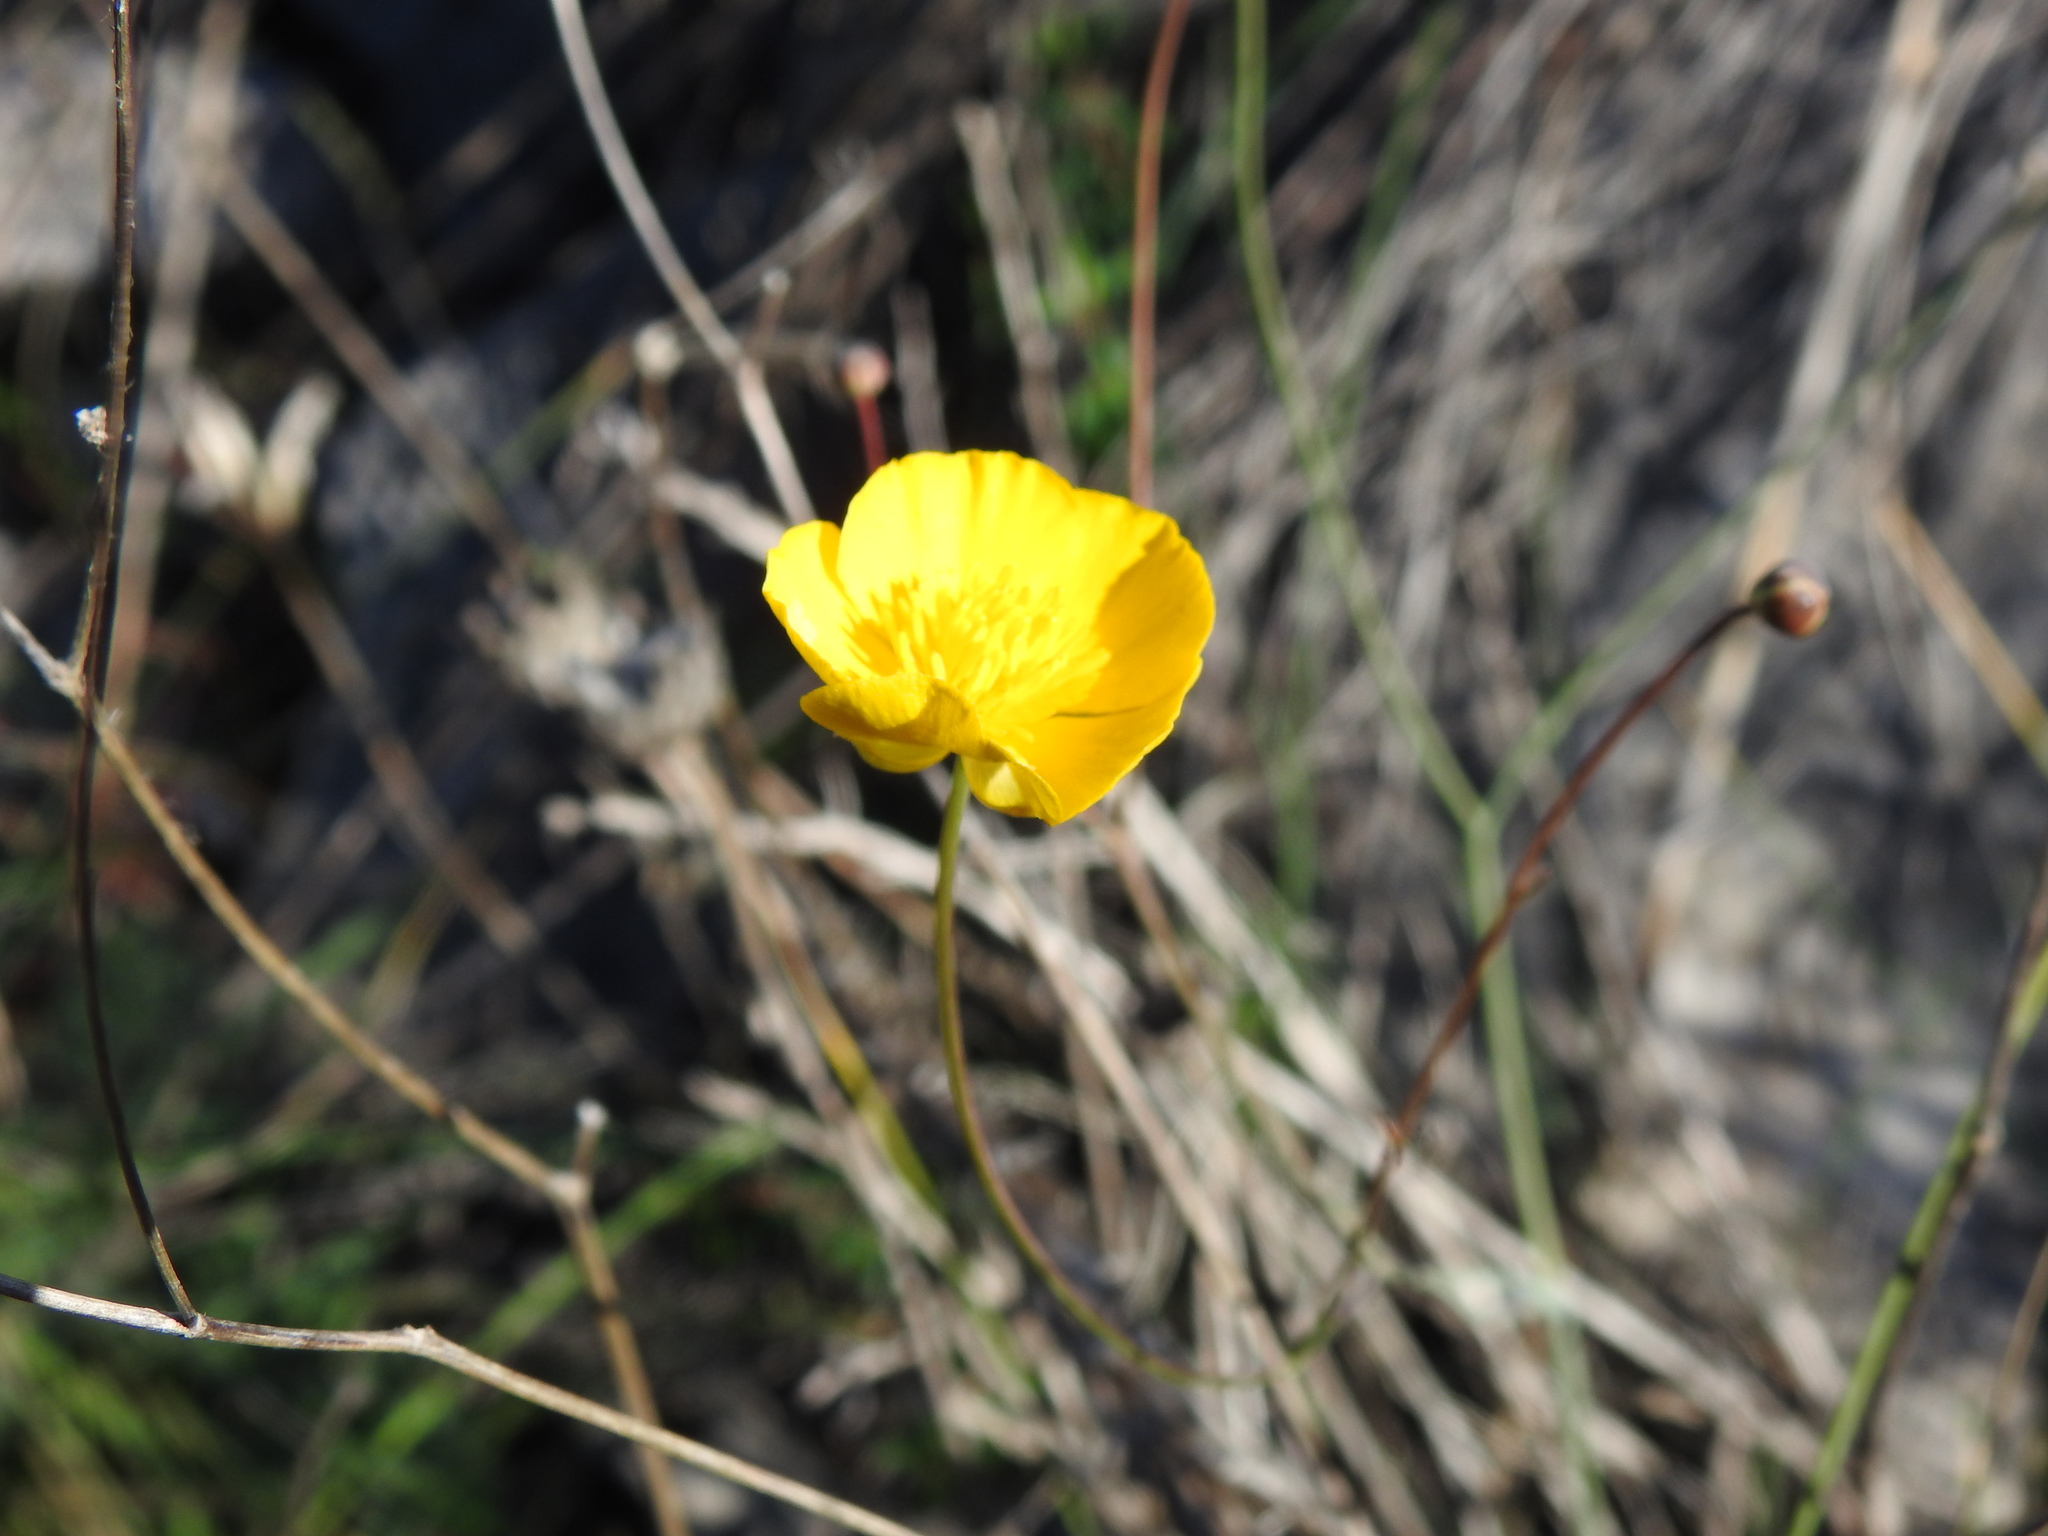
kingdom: Plantae
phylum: Tracheophyta
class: Magnoliopsida
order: Ranunculales
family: Ranunculaceae
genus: Ranunculus
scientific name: Ranunculus gramineus
